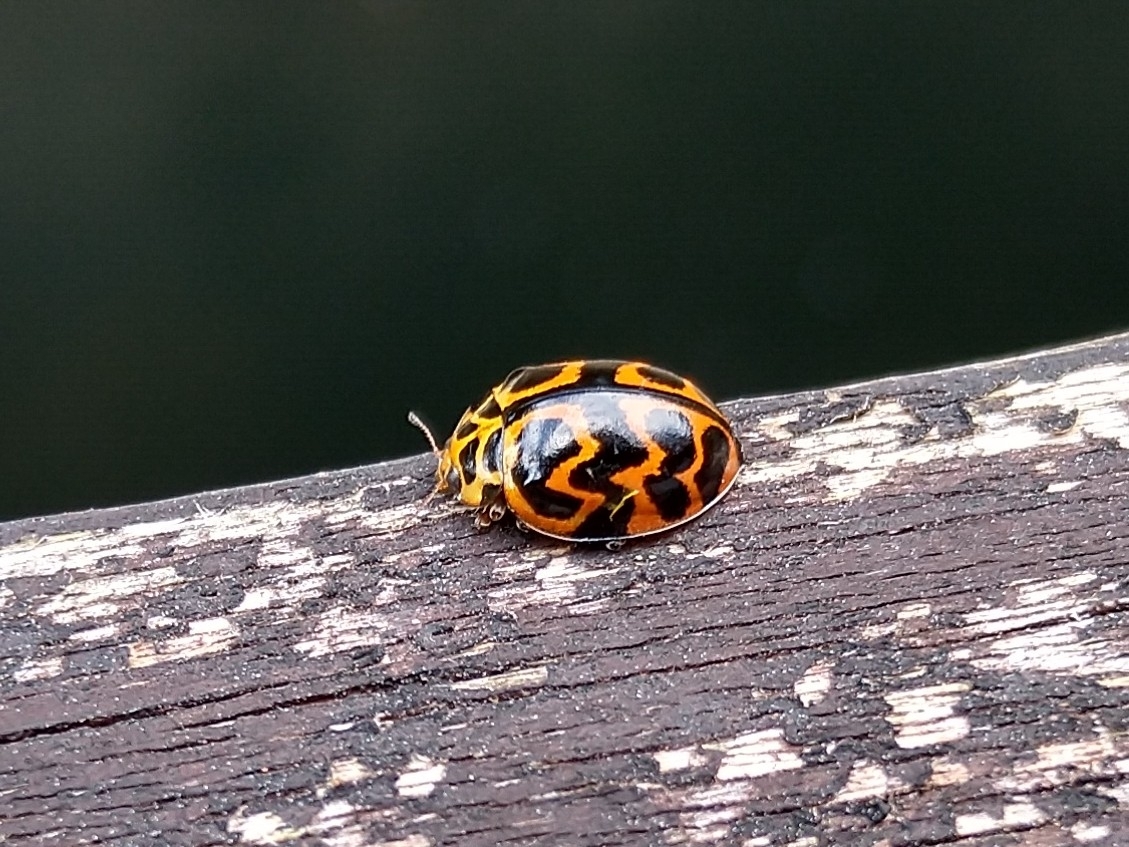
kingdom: Animalia
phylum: Arthropoda
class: Insecta
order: Coleoptera
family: Coccinellidae
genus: Cleobora
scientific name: Cleobora
